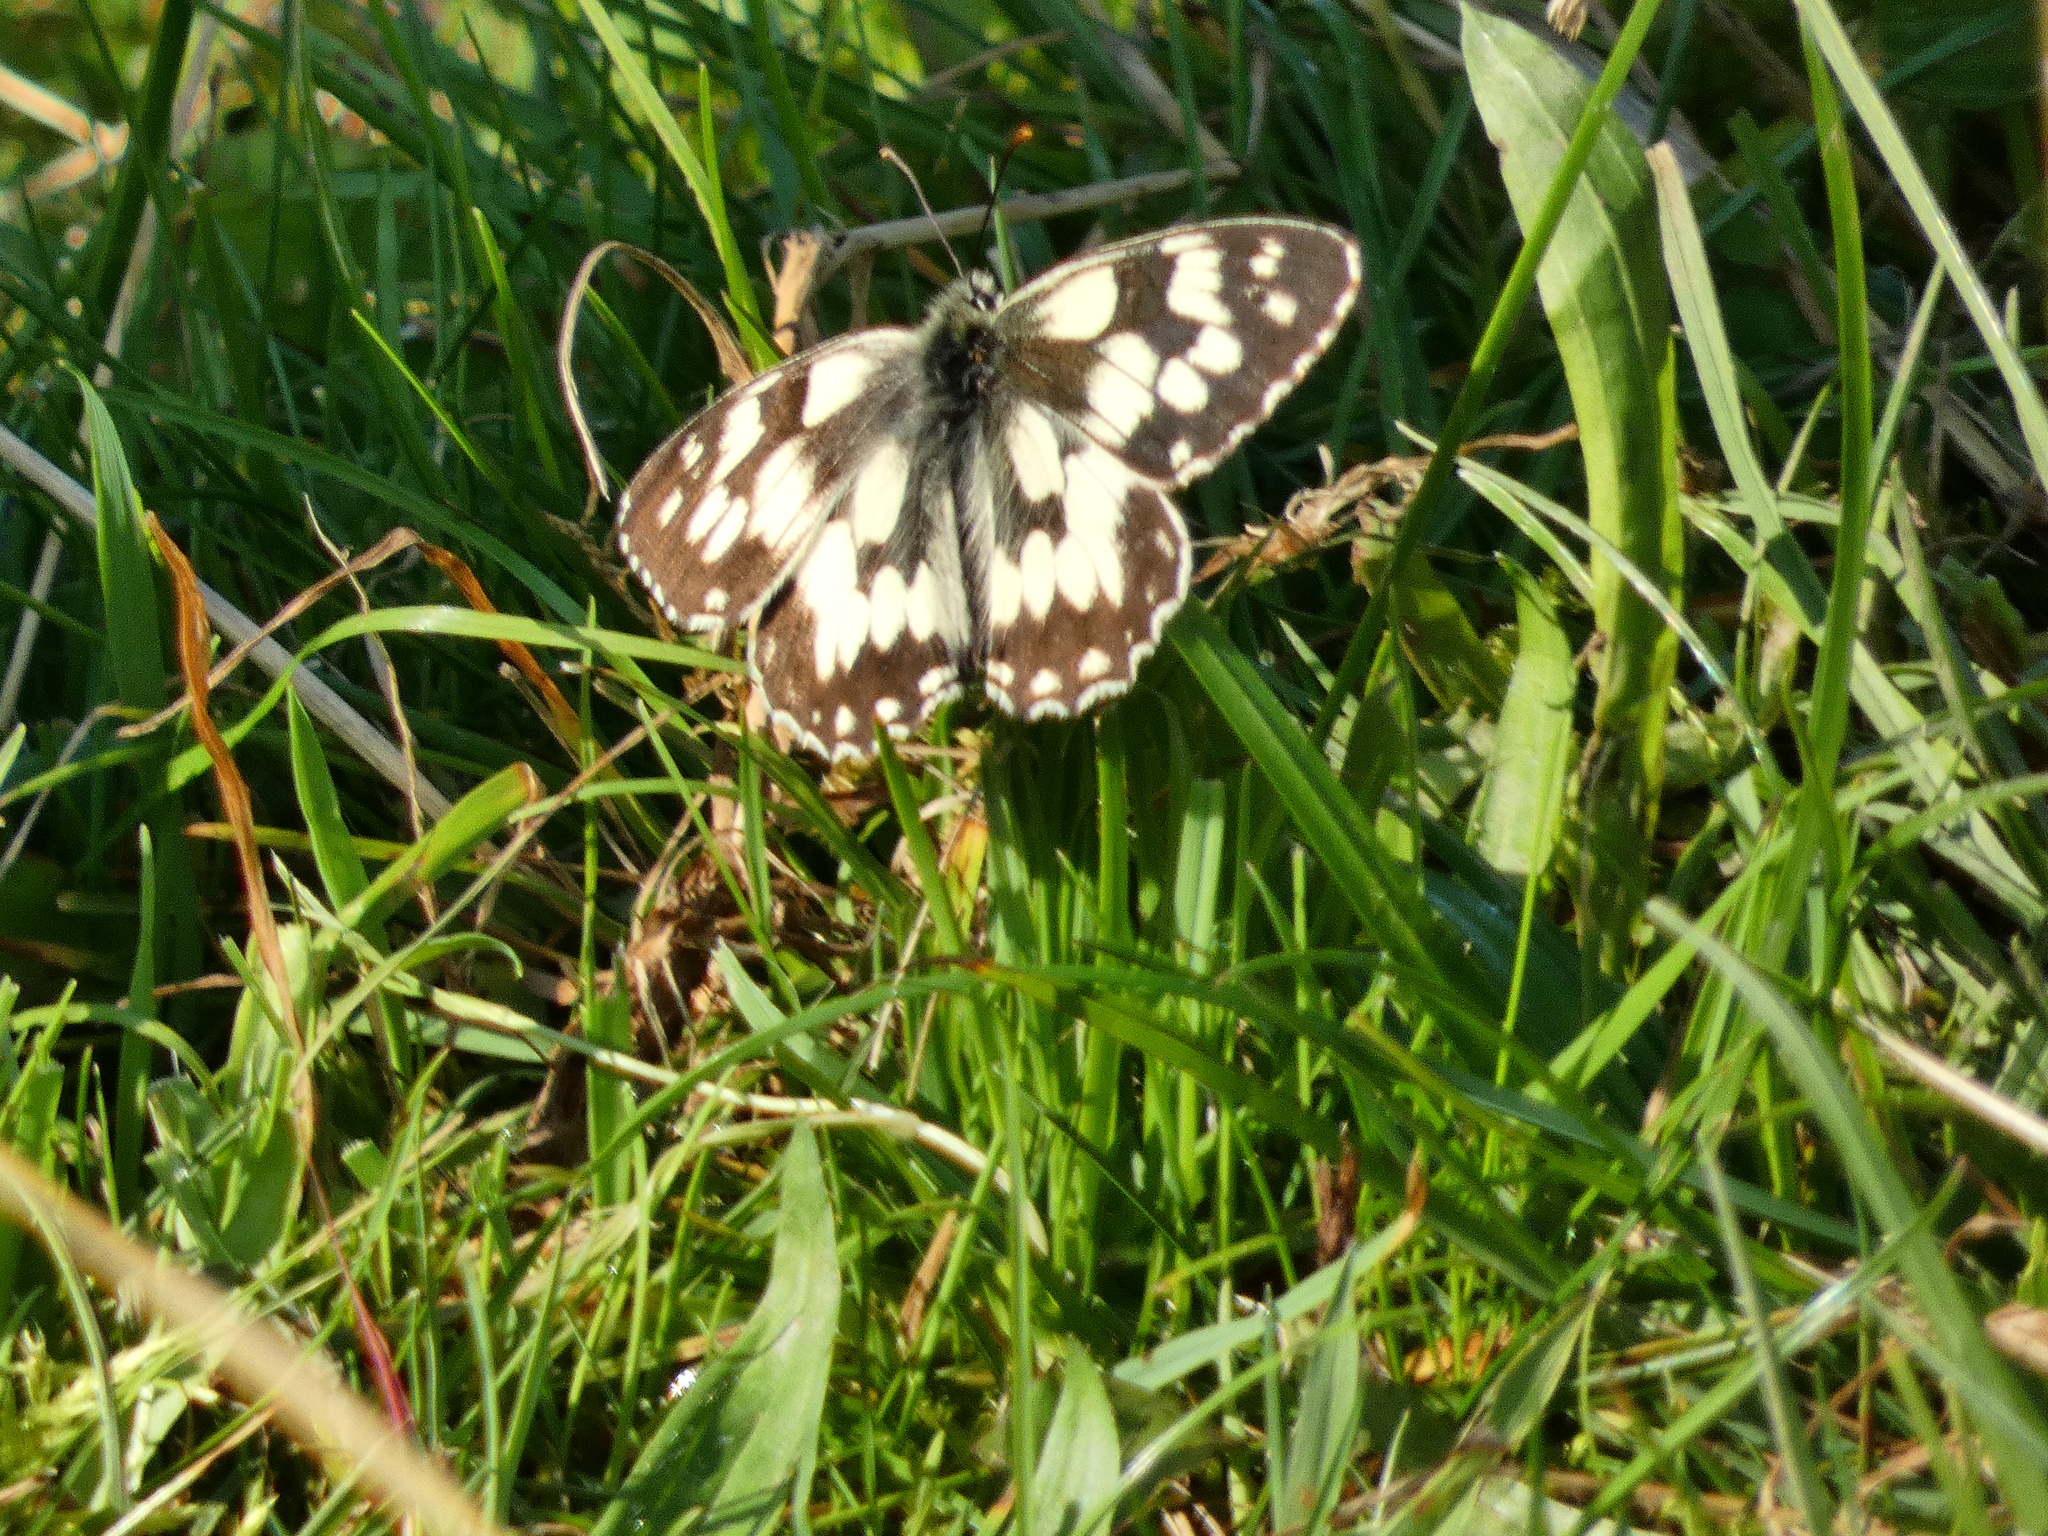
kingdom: Animalia
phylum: Arthropoda
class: Insecta
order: Lepidoptera
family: Nymphalidae
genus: Melanargia
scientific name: Melanargia galathea
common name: Marbled white
